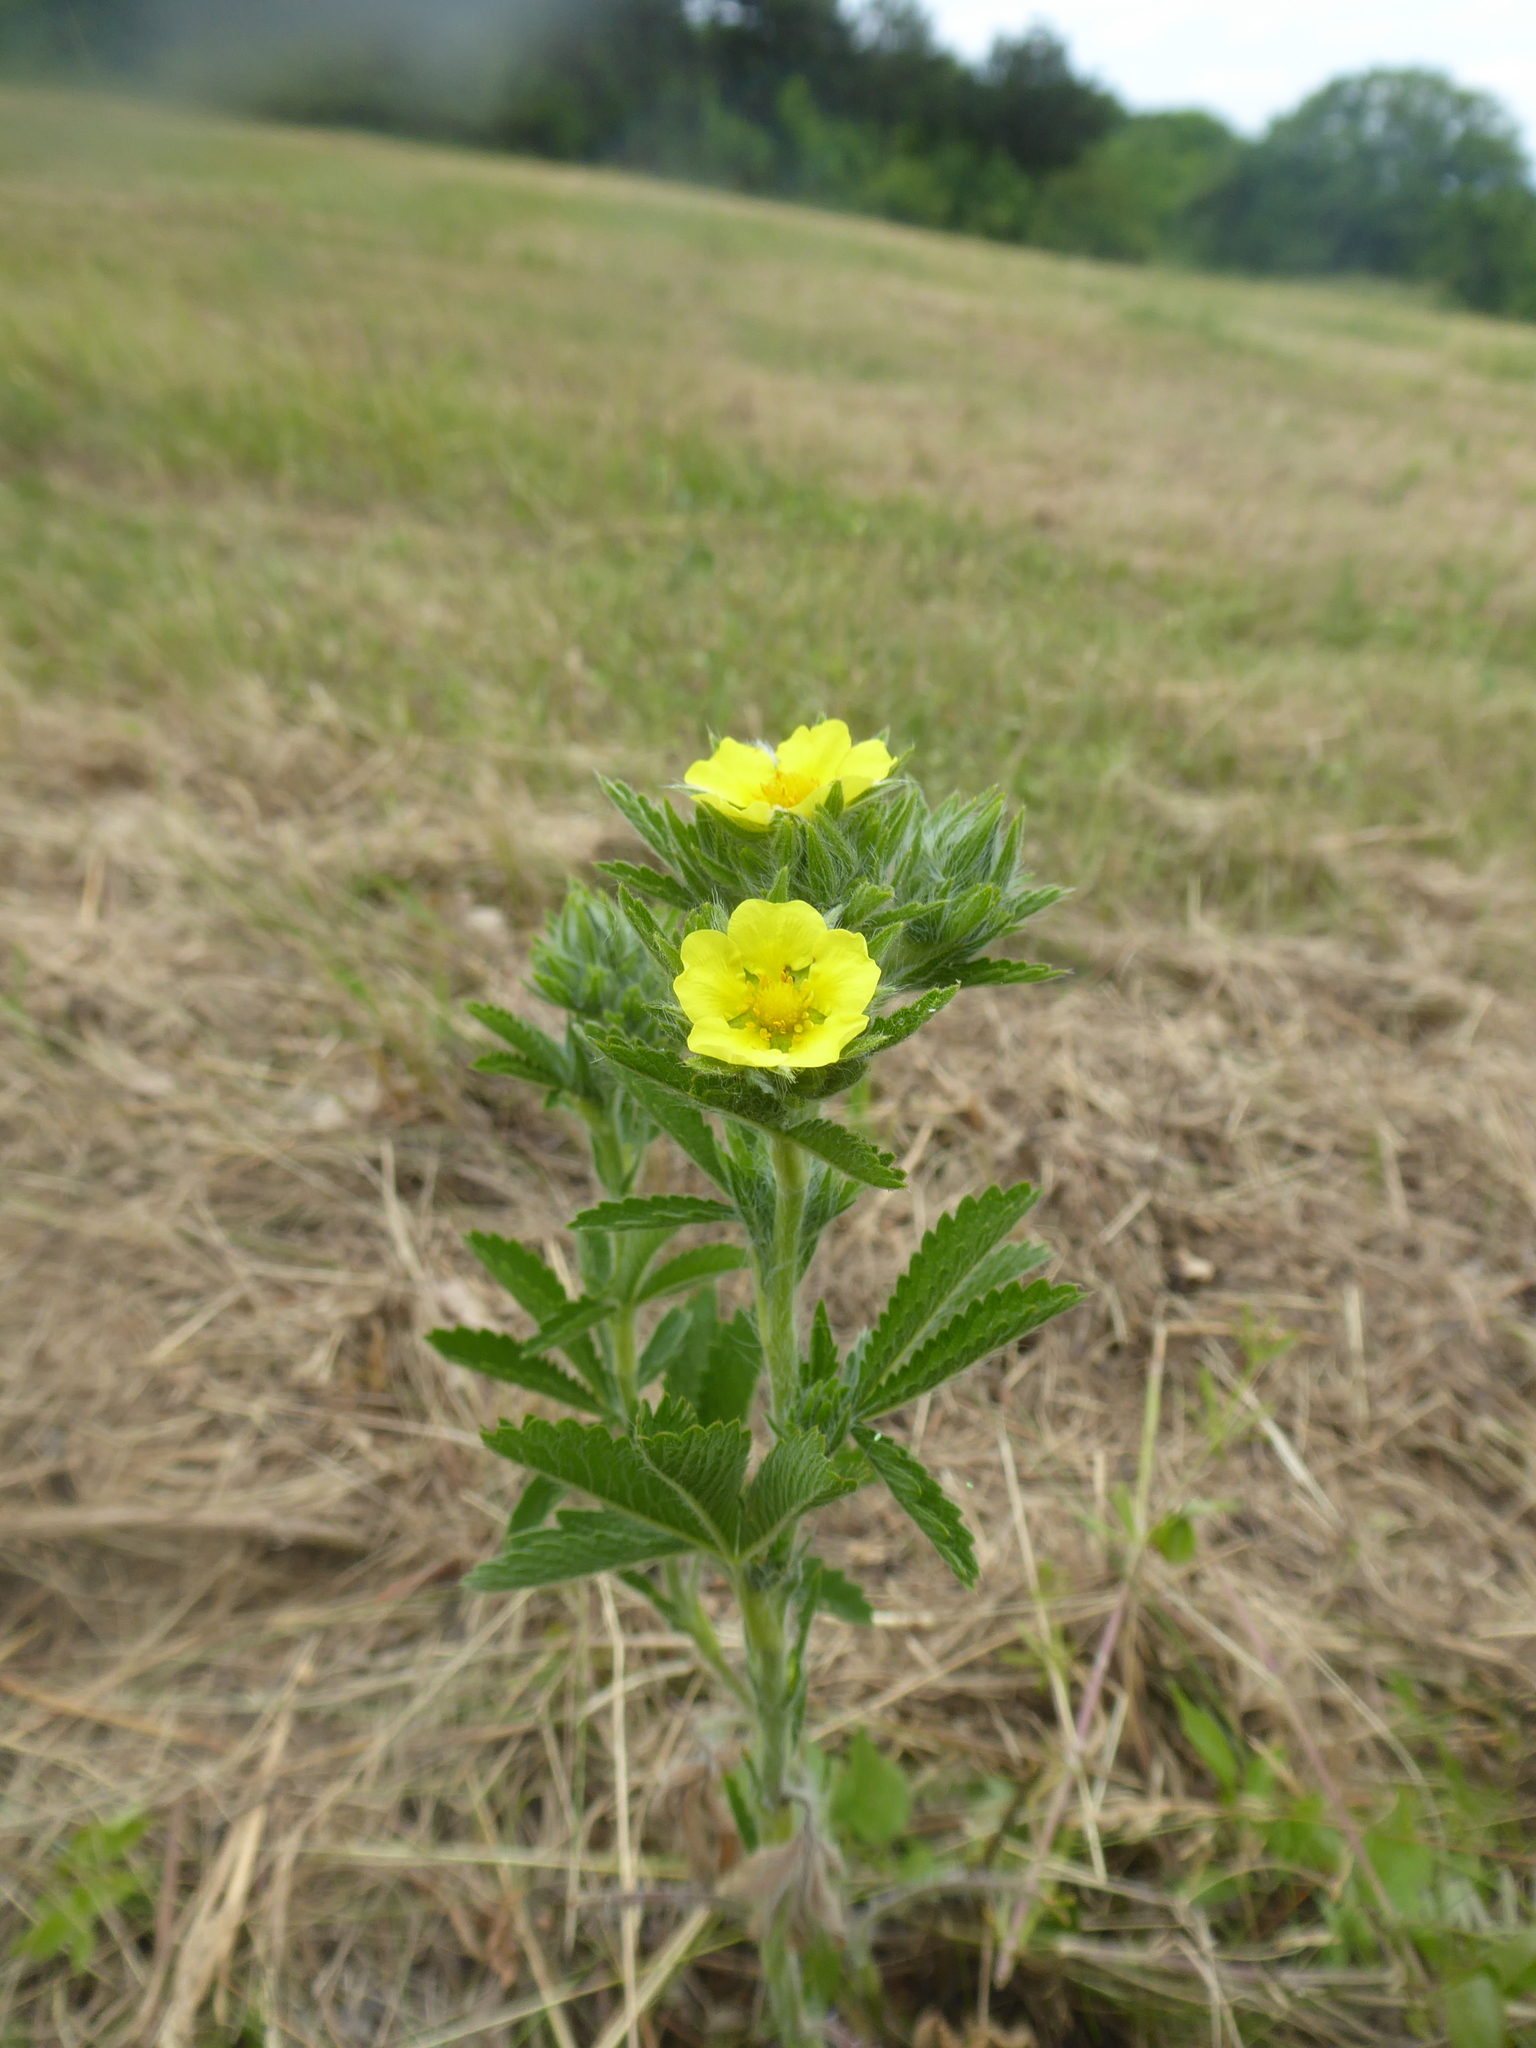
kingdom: Plantae
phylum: Tracheophyta
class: Magnoliopsida
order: Rosales
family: Rosaceae
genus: Potentilla
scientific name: Potentilla recta
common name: Sulphur cinquefoil
